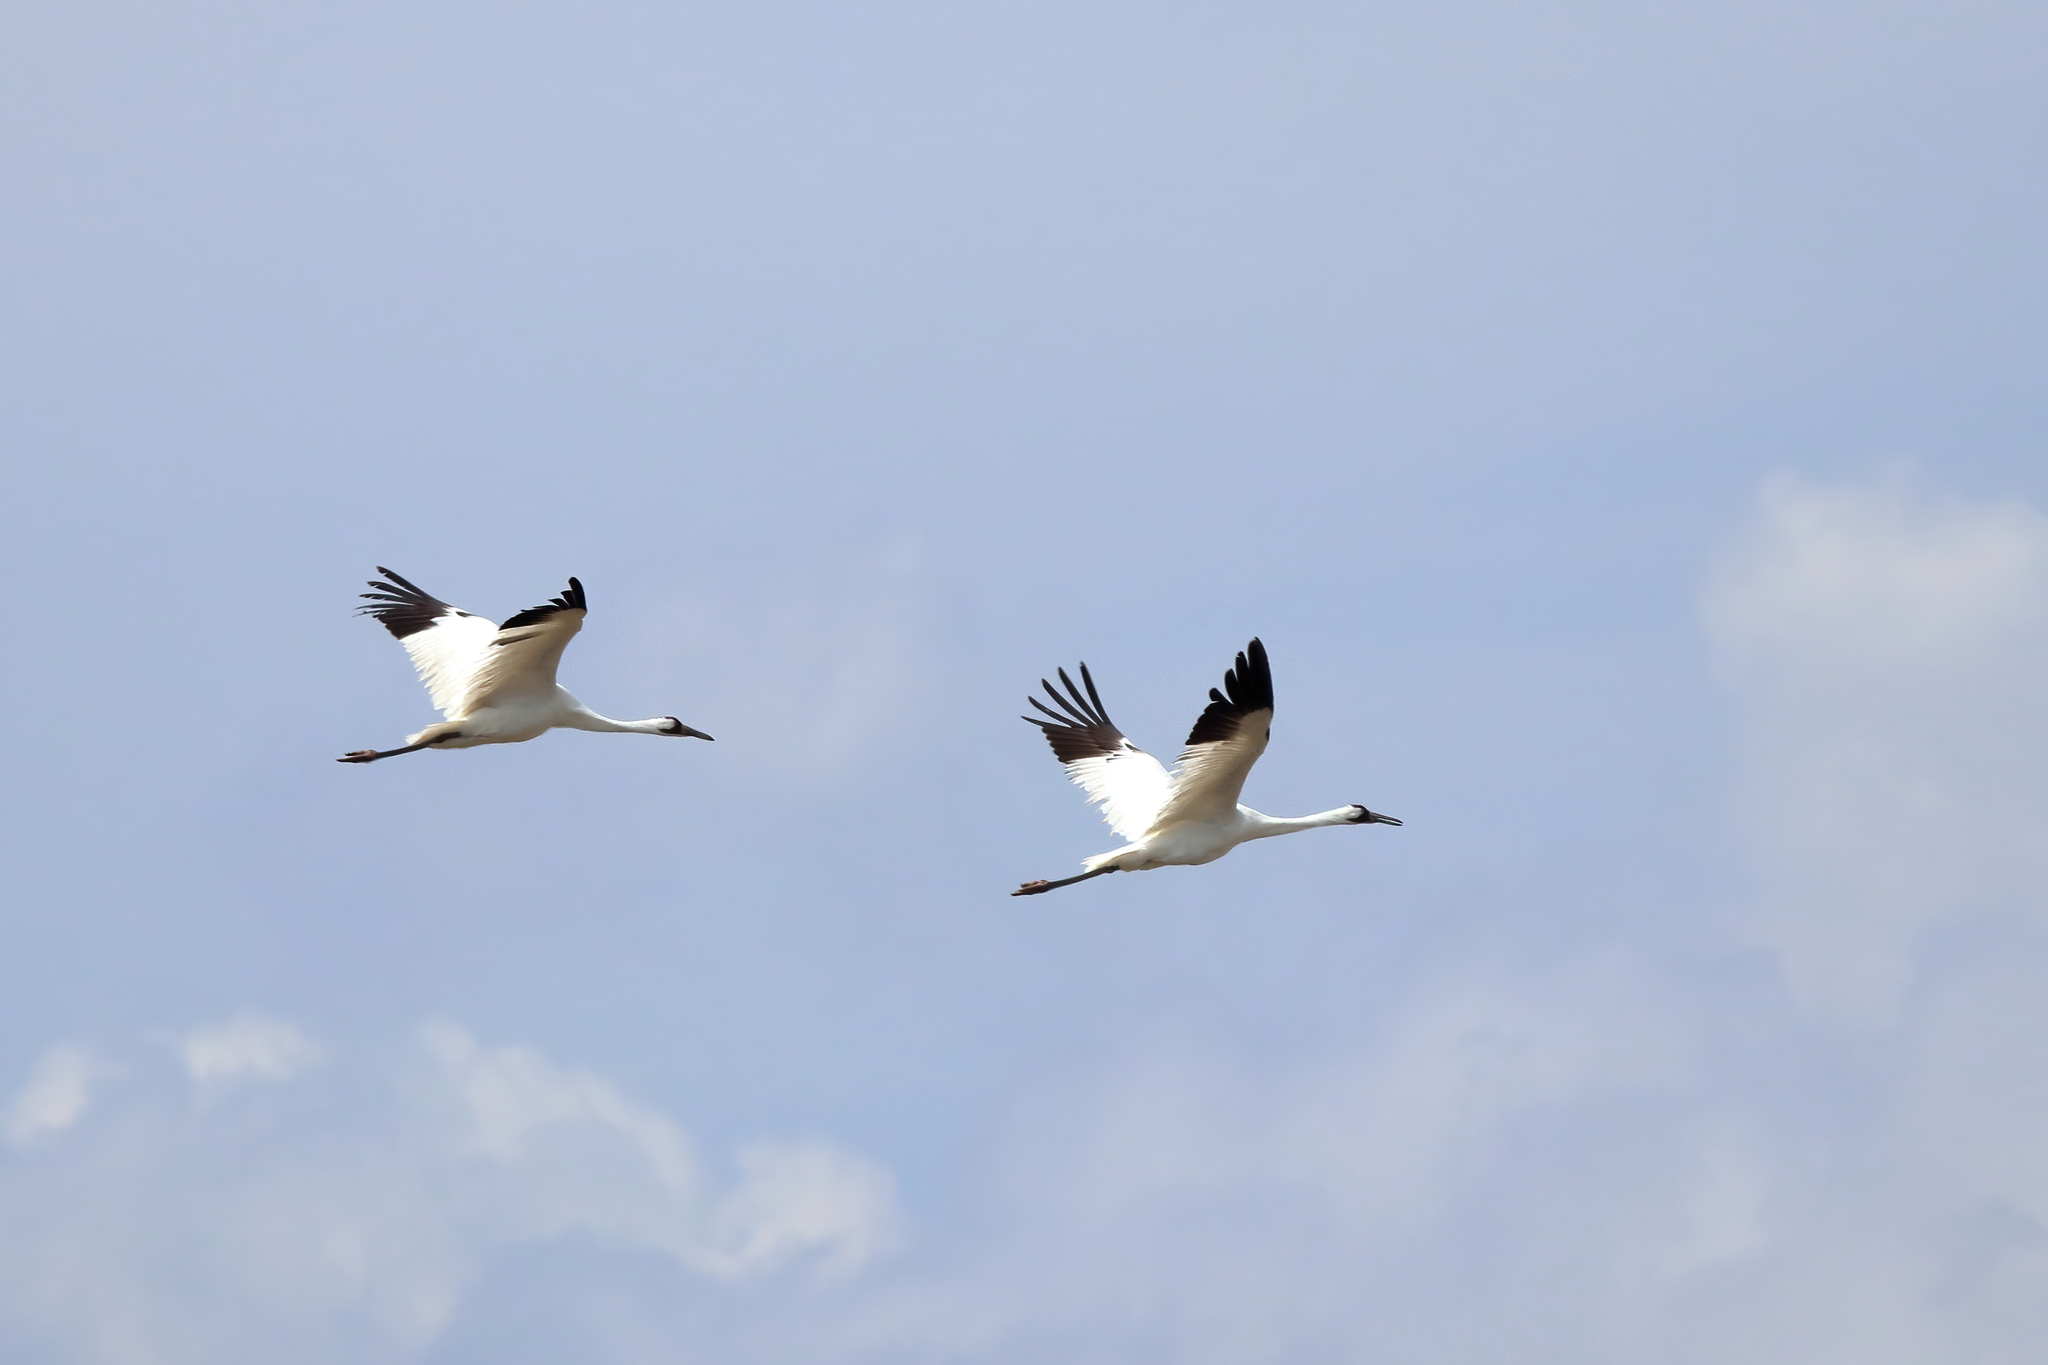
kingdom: Animalia
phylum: Chordata
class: Aves
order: Gruiformes
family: Gruidae
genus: Grus
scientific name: Grus americana
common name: Whooping crane
